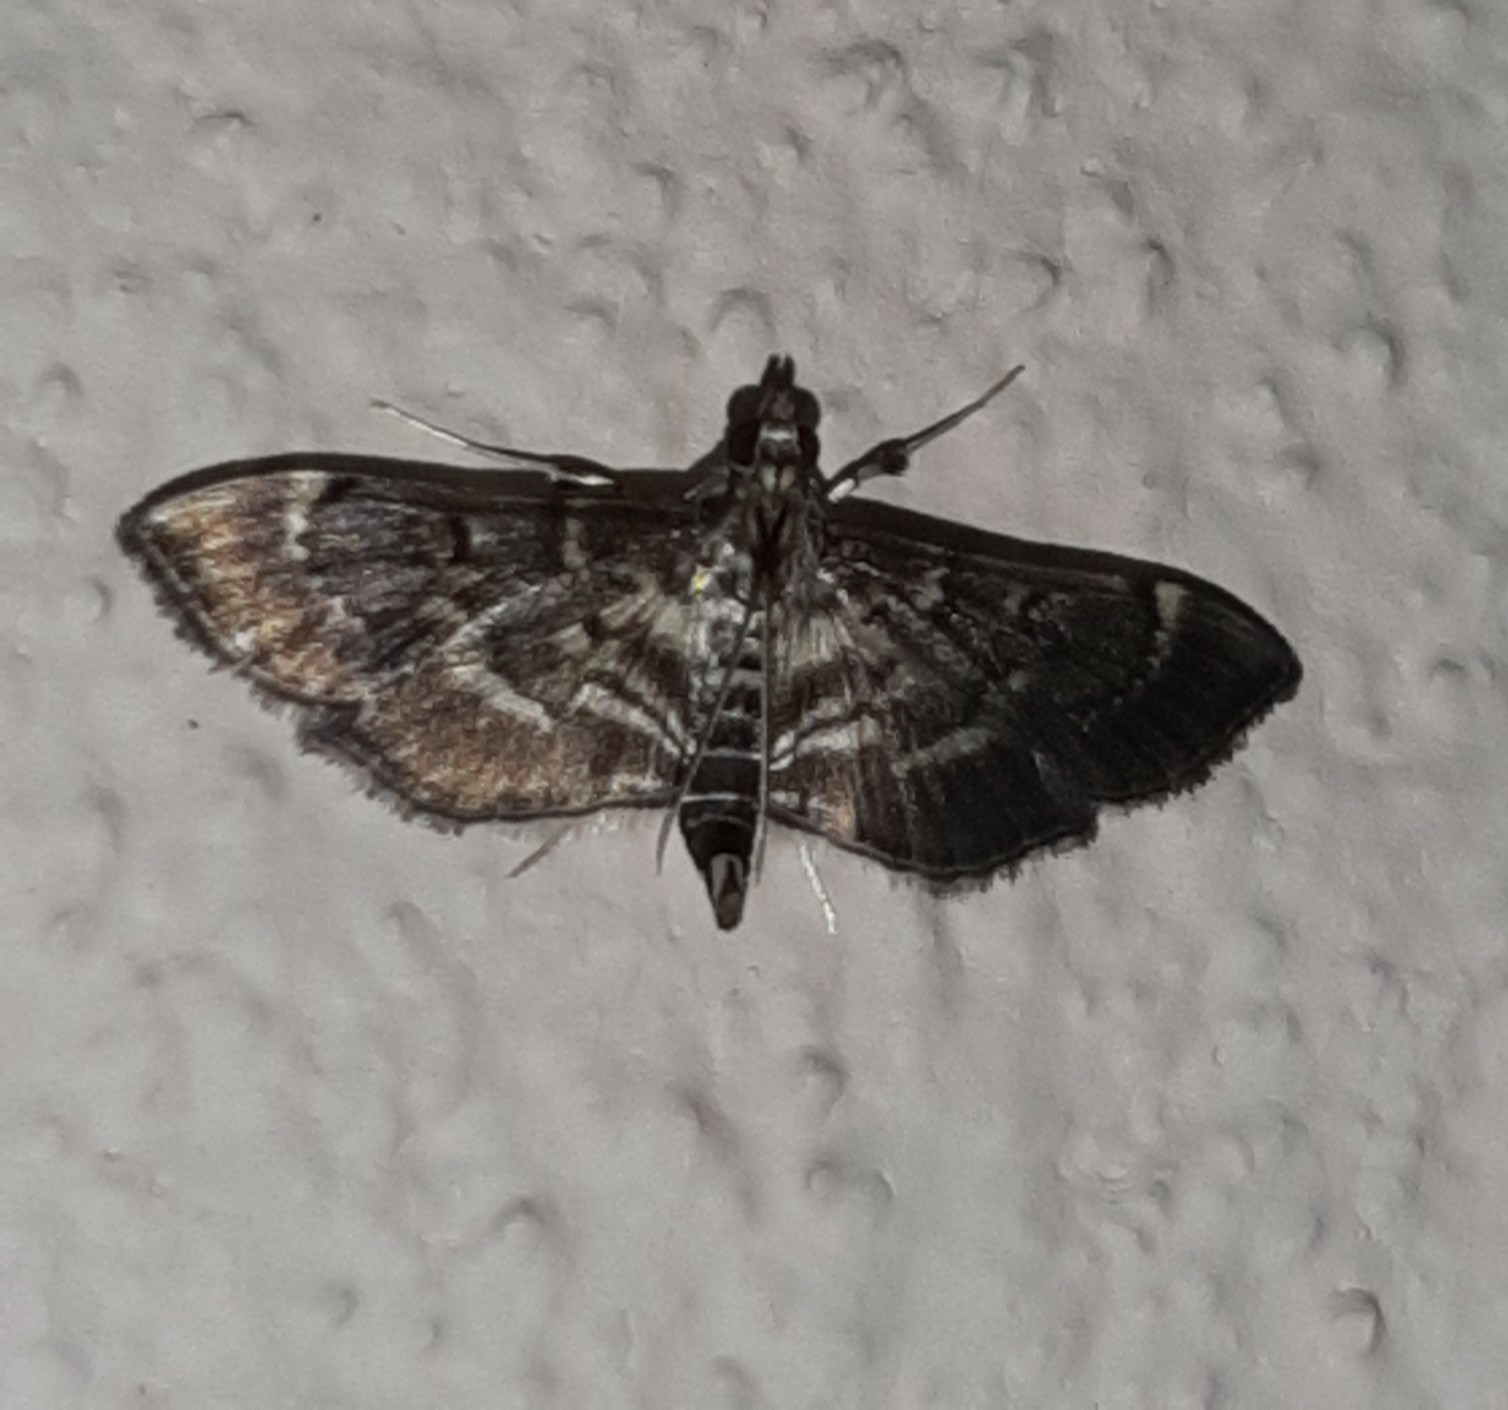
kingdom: Animalia
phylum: Arthropoda
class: Insecta
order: Lepidoptera
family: Crambidae
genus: Cryptobotys
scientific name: Cryptobotys zoilusalis
